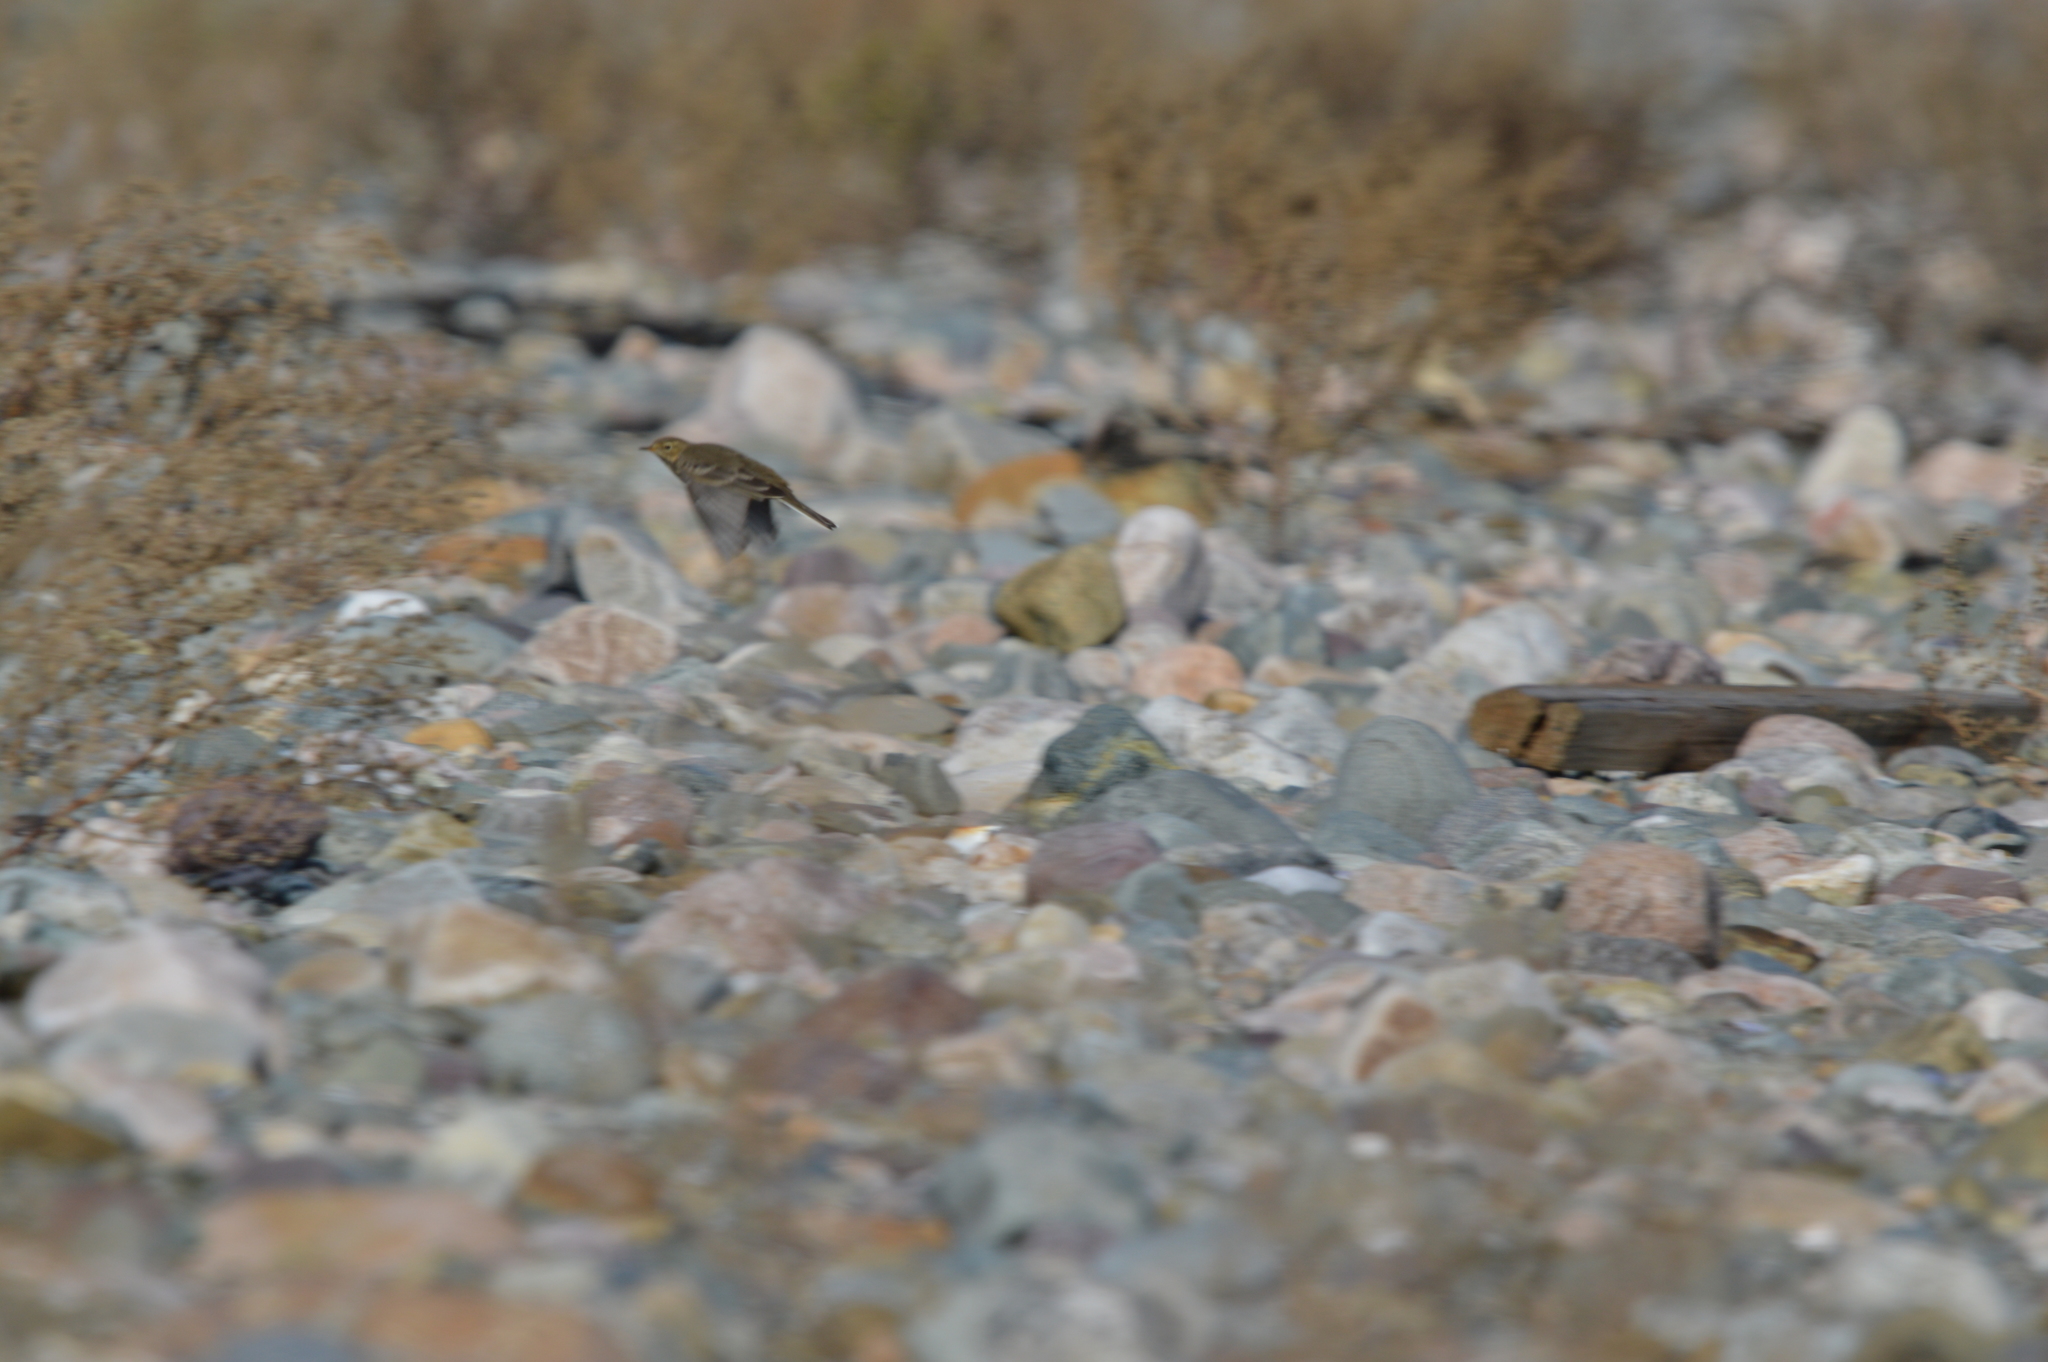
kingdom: Animalia
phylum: Chordata
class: Aves
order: Passeriformes
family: Motacillidae
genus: Anthus
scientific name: Anthus rubescens
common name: Buff-bellied pipit
